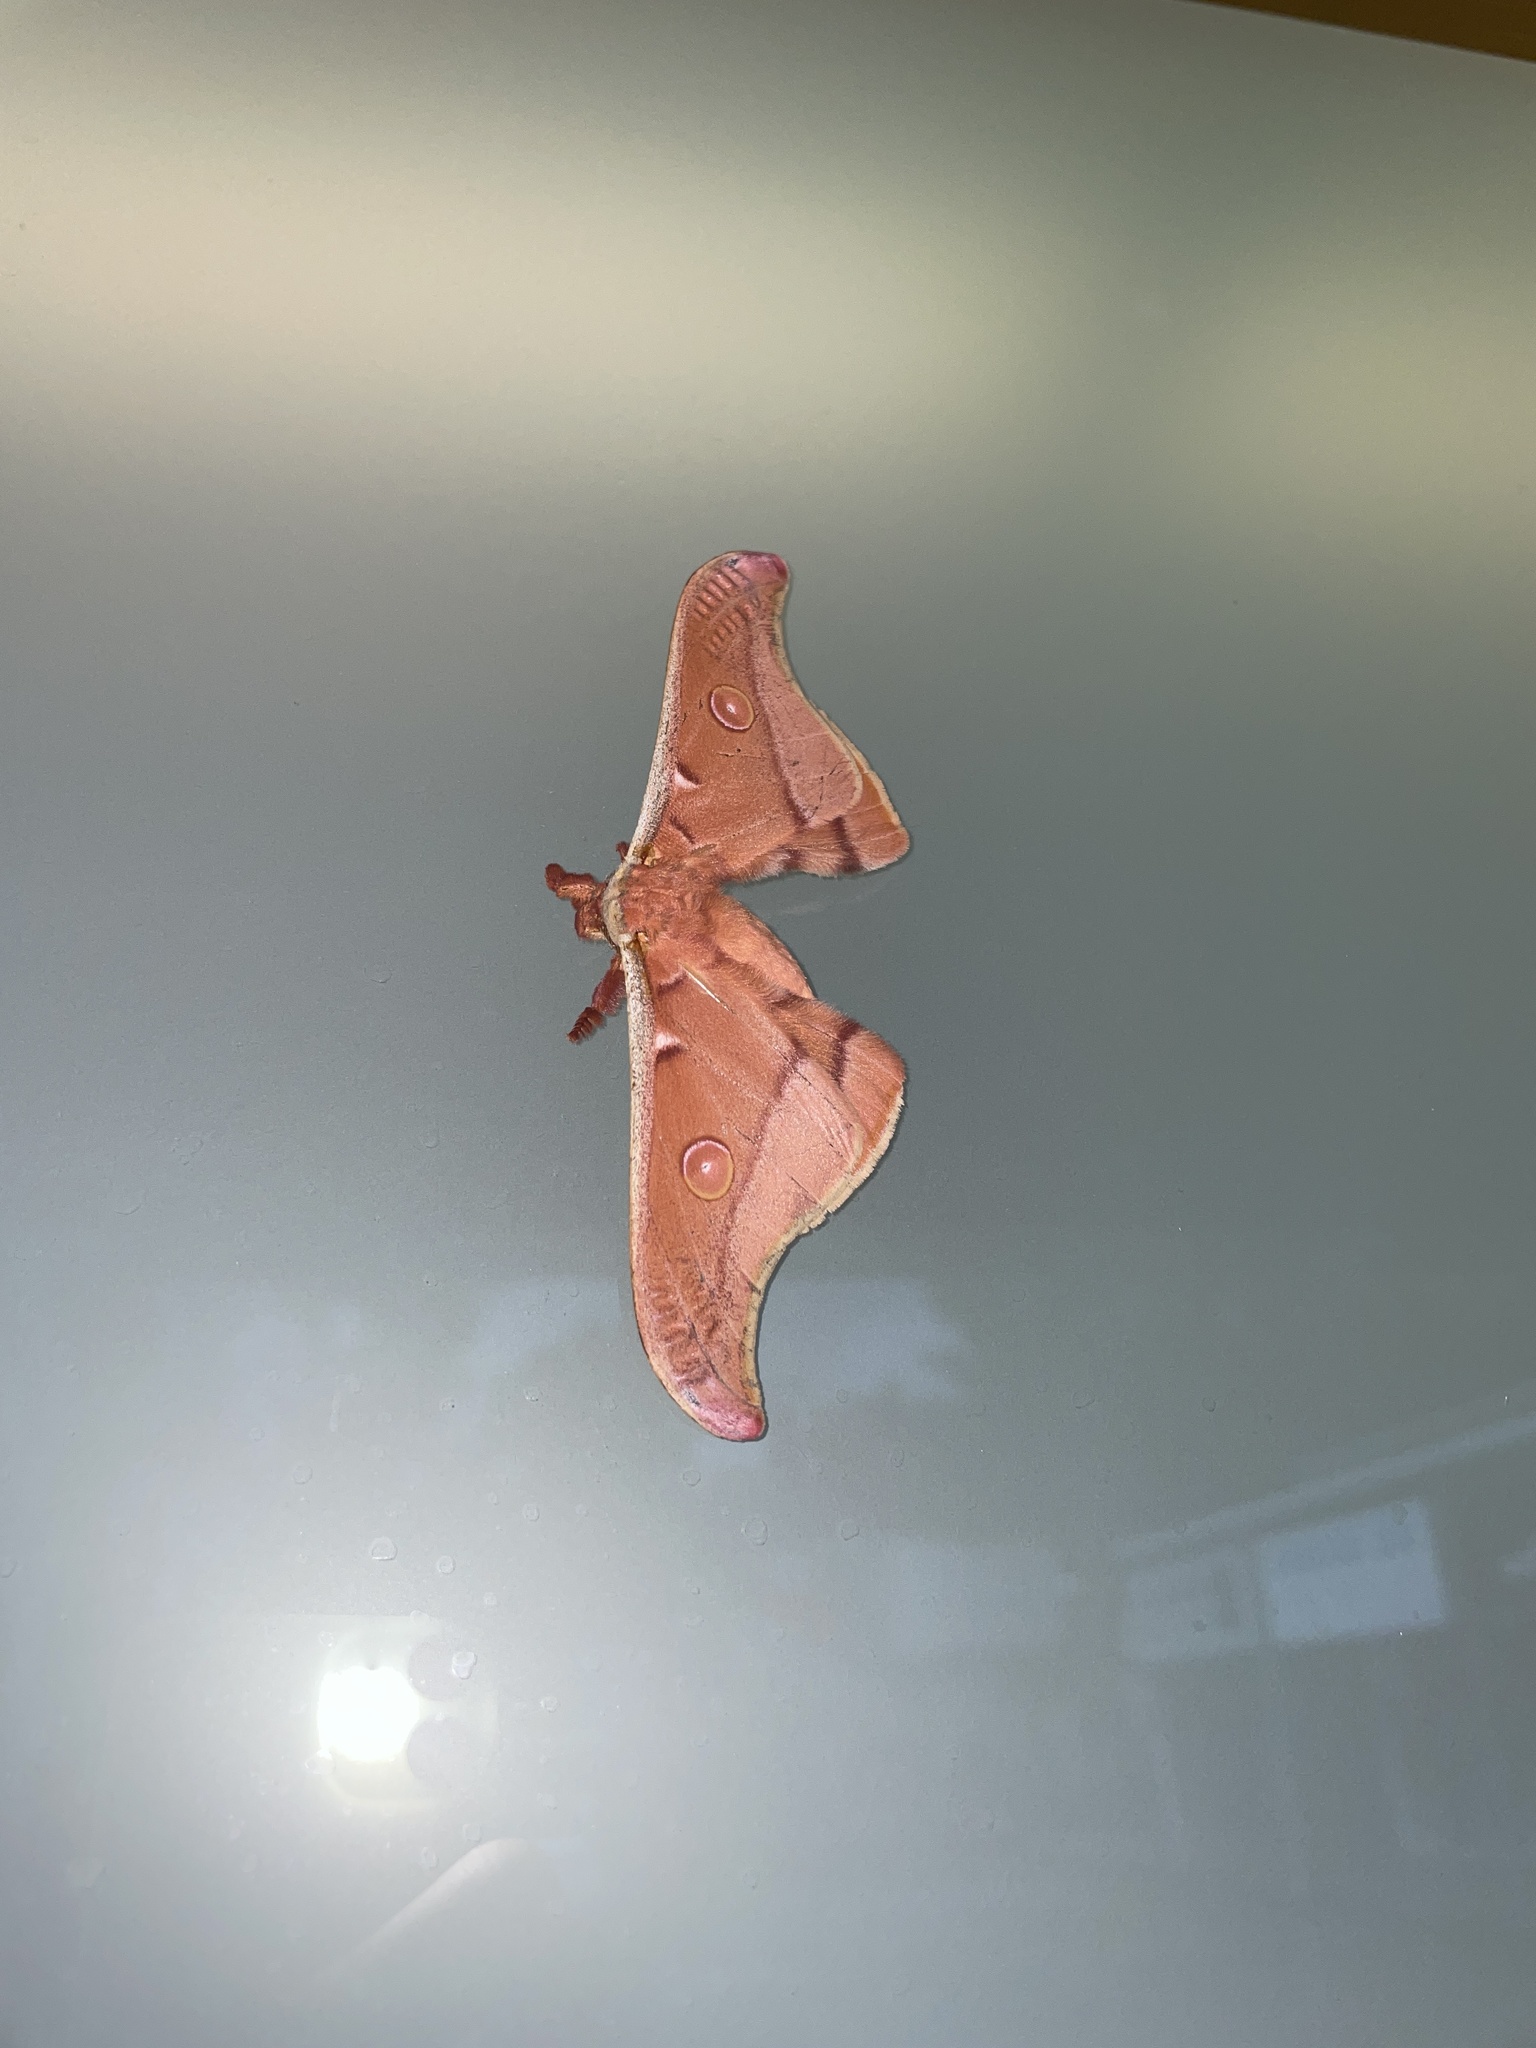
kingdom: Animalia
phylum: Arthropoda
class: Insecta
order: Lepidoptera
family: Saturniidae
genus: Opodiphthera
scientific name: Opodiphthera
